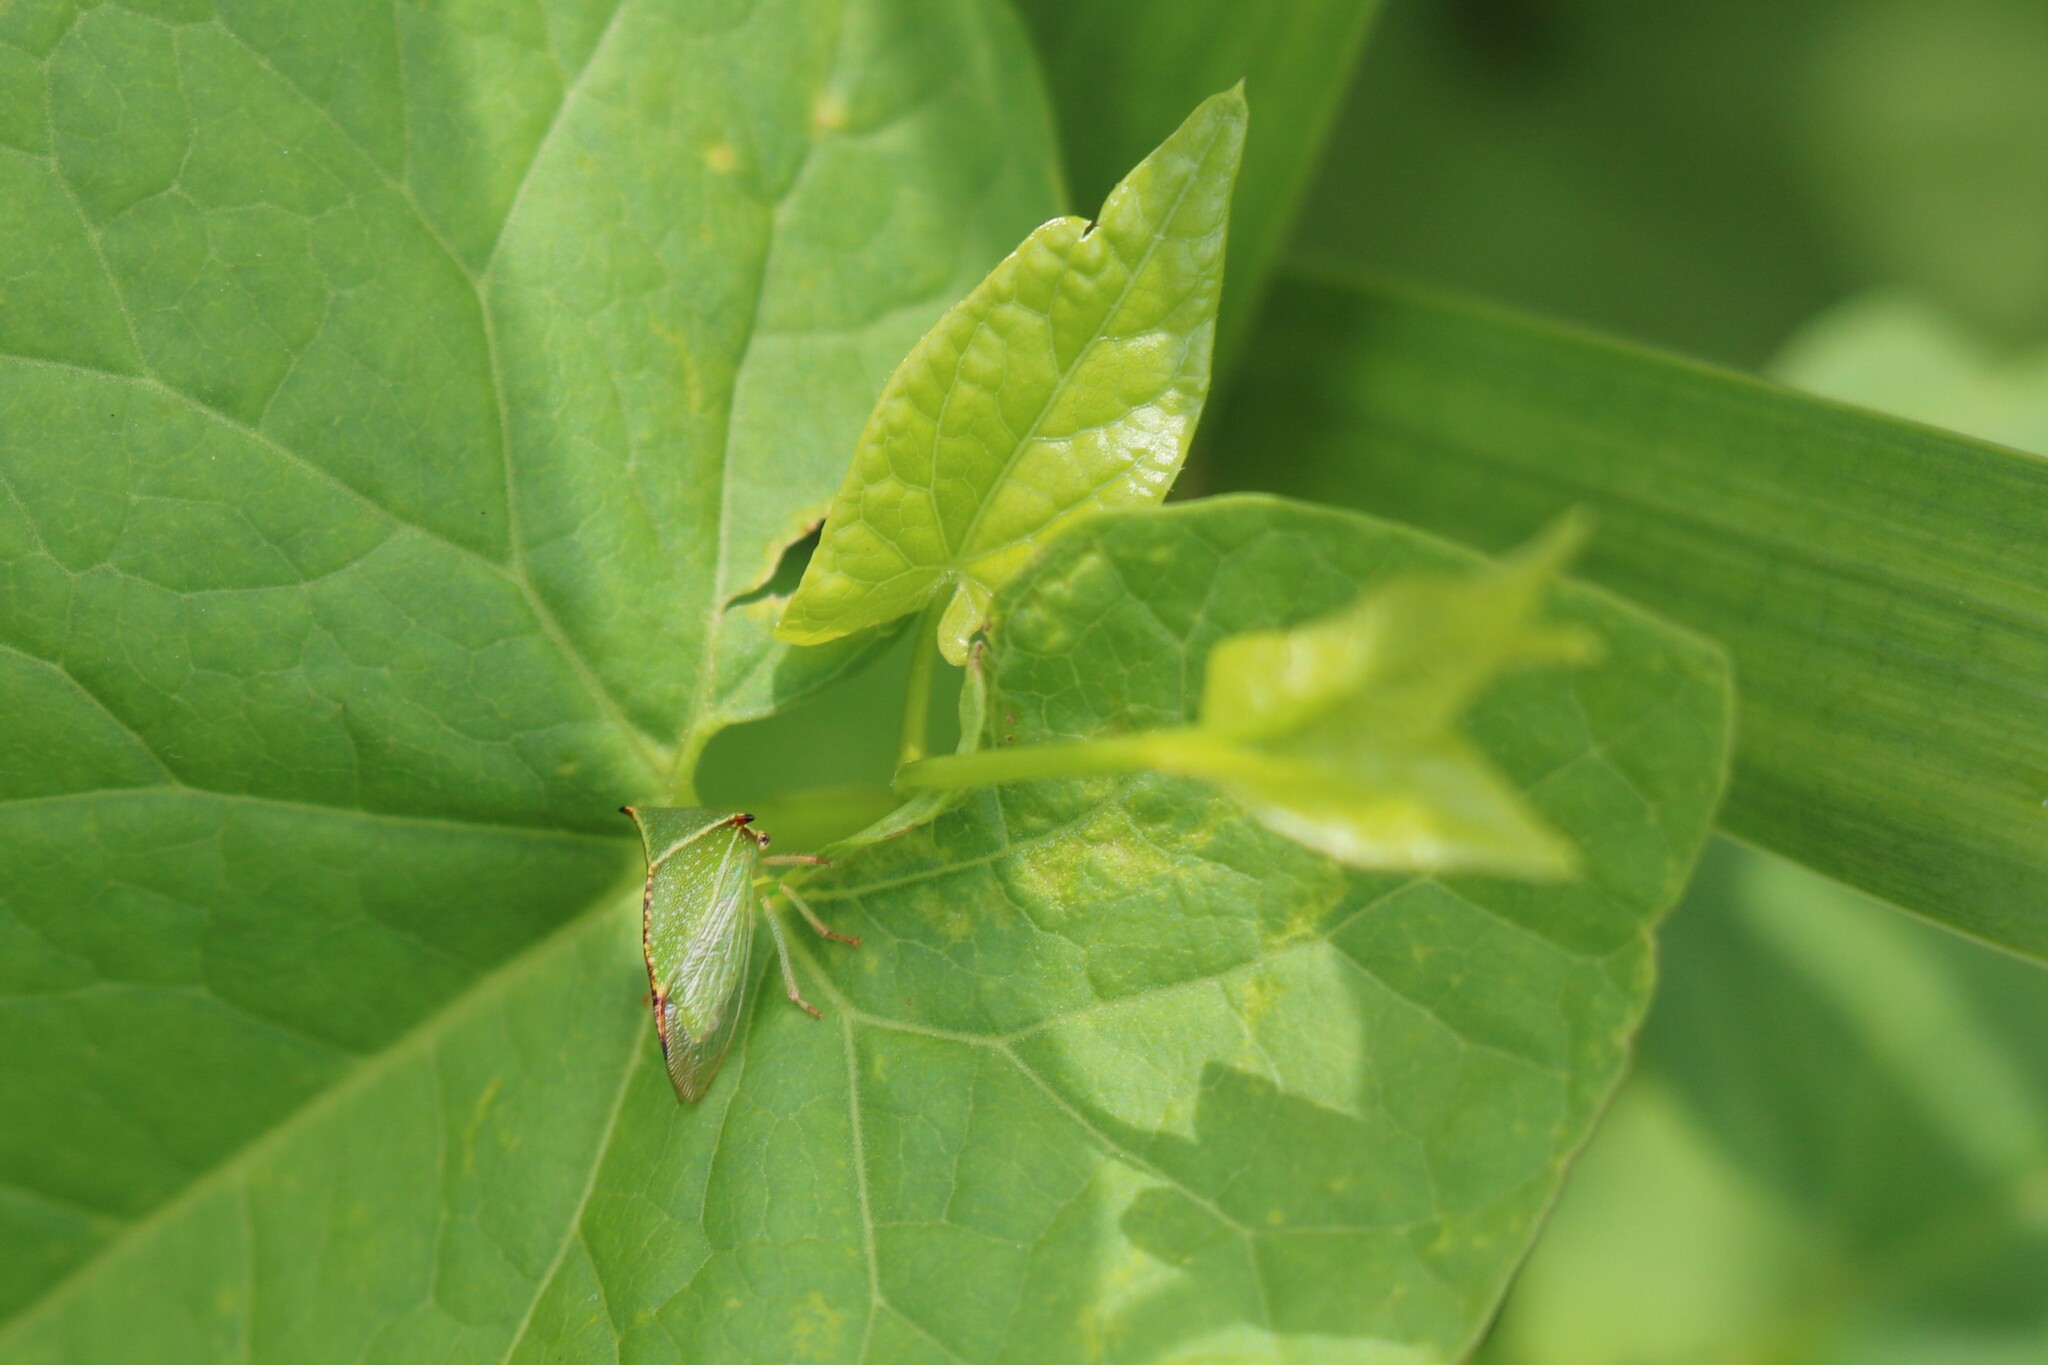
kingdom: Animalia
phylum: Arthropoda
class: Insecta
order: Hemiptera
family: Membracidae
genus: Stictocephala
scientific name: Stictocephala bisonia
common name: American buffalo treehopper
